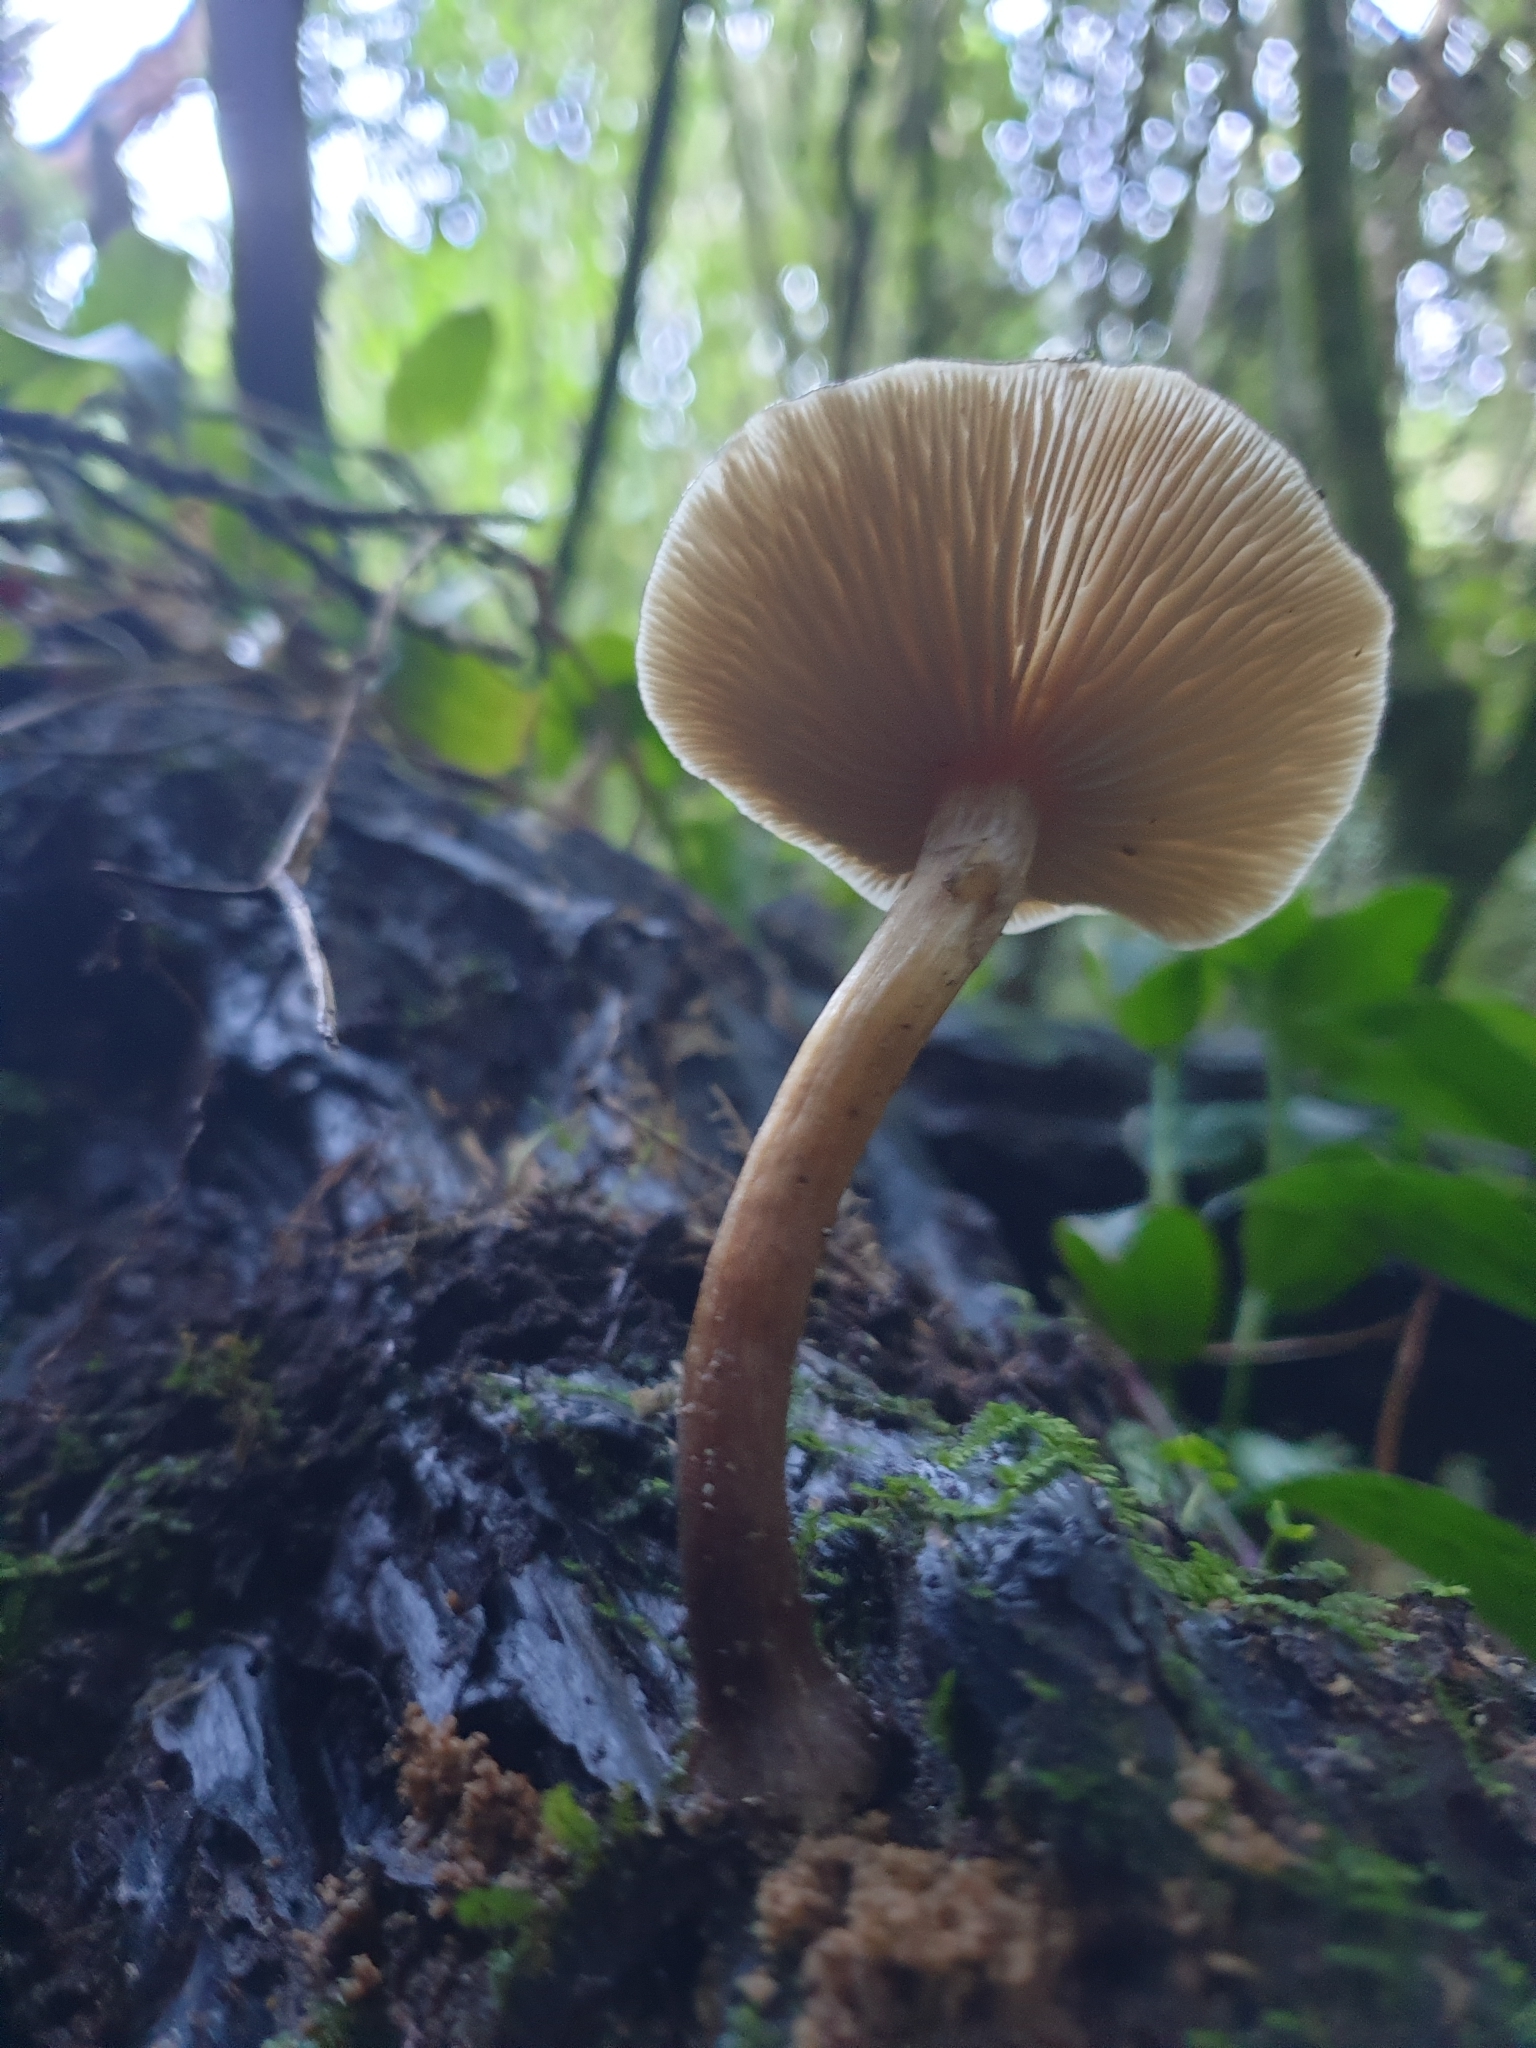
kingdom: Fungi
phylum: Basidiomycota
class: Agaricomycetes
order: Agaricales
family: Physalacriaceae
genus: Armillaria
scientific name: Armillaria novae-zelandiae
